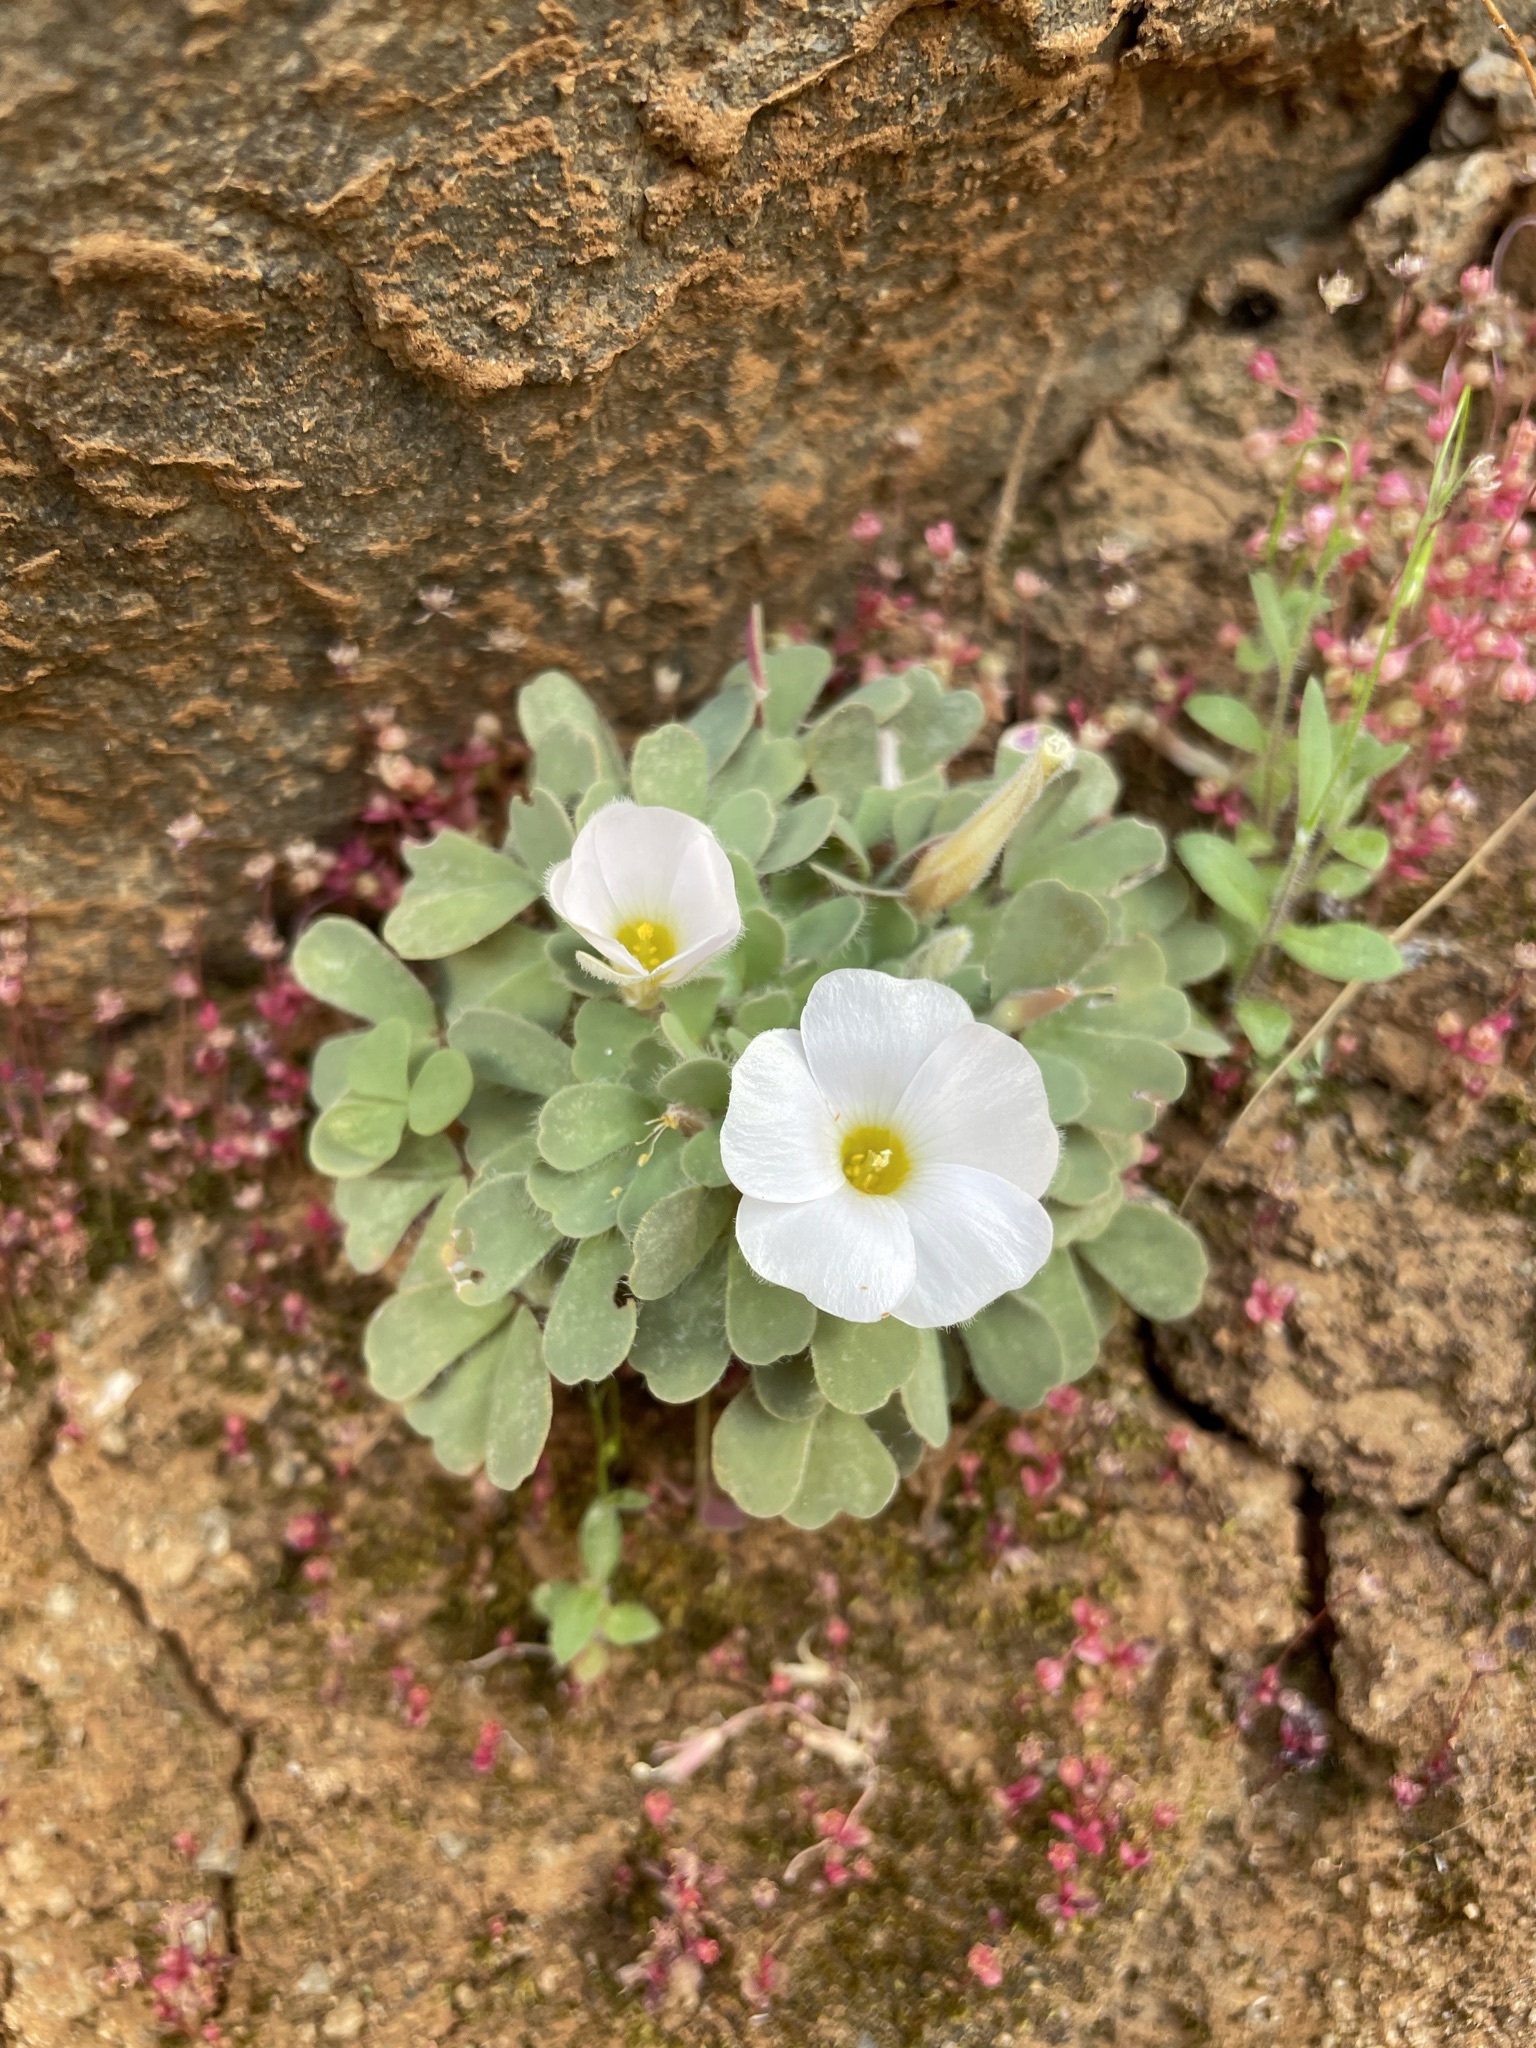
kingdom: Plantae
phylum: Tracheophyta
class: Magnoliopsida
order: Oxalidales
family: Oxalidaceae
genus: Oxalis
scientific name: Oxalis annae
